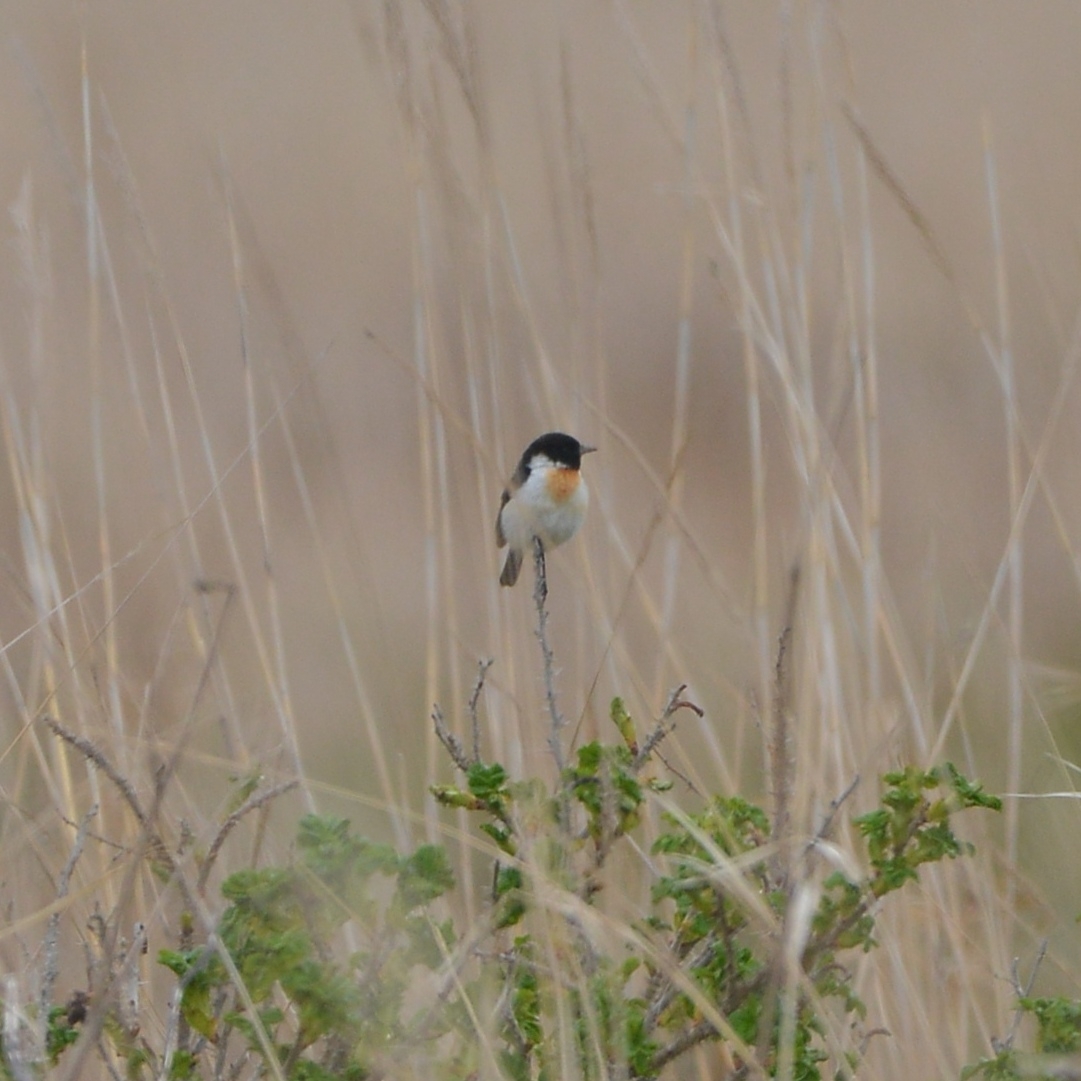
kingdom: Animalia
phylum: Chordata
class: Aves
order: Passeriformes
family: Muscicapidae
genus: Saxicola
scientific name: Saxicola stejnegeri
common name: Stejneger's stonechat
